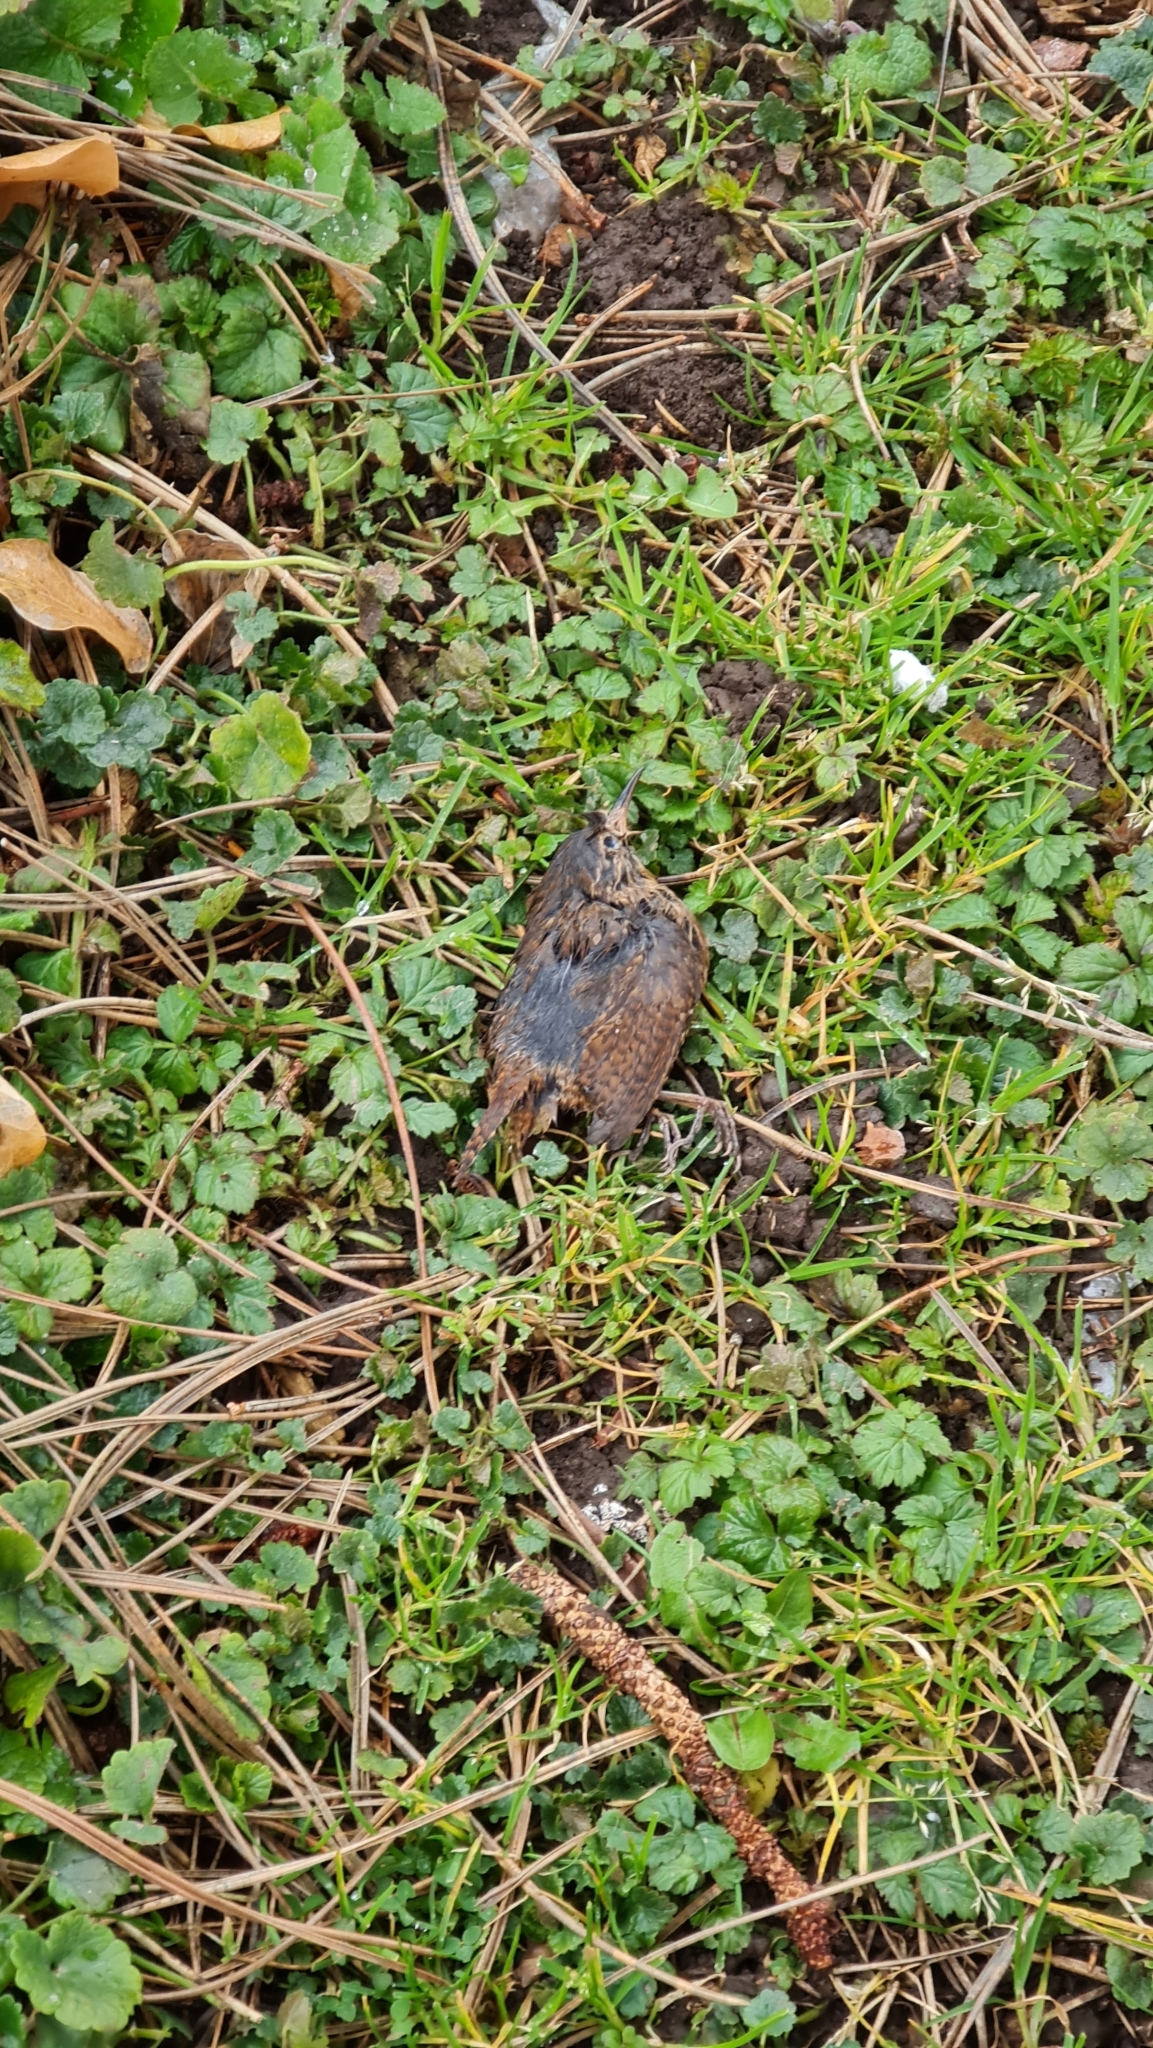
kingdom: Animalia
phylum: Chordata
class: Aves
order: Passeriformes
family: Troglodytidae
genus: Troglodytes
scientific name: Troglodytes troglodytes
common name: Eurasian wren
